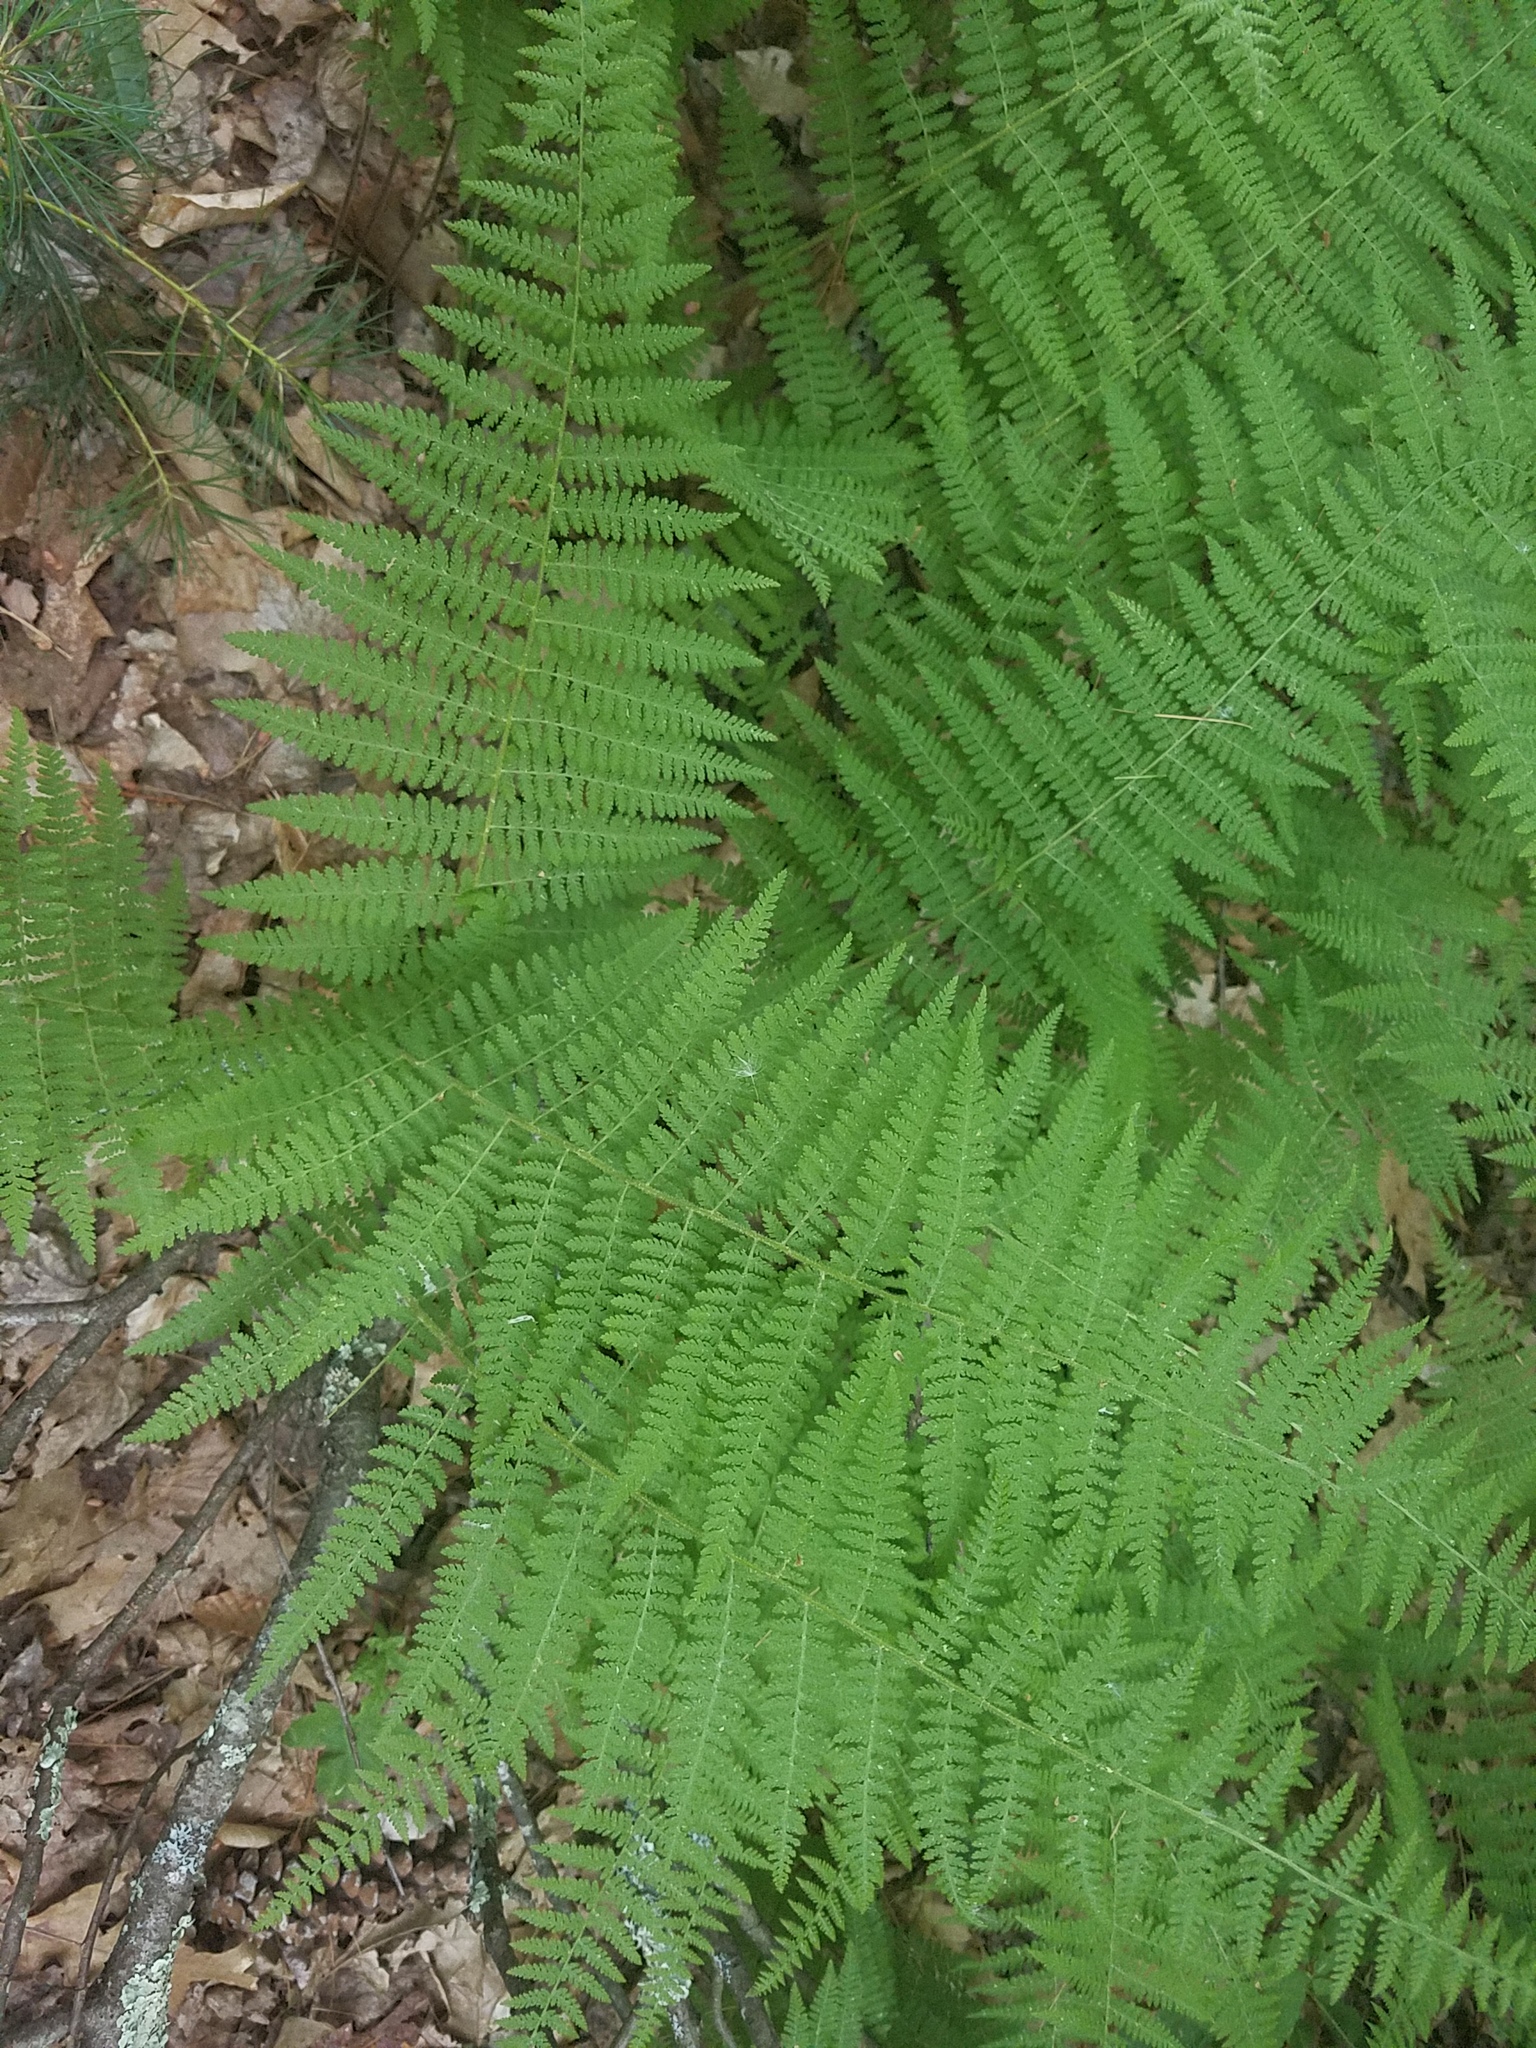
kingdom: Plantae
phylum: Tracheophyta
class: Polypodiopsida
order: Polypodiales
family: Dennstaedtiaceae
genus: Sitobolium
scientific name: Sitobolium punctilobum
